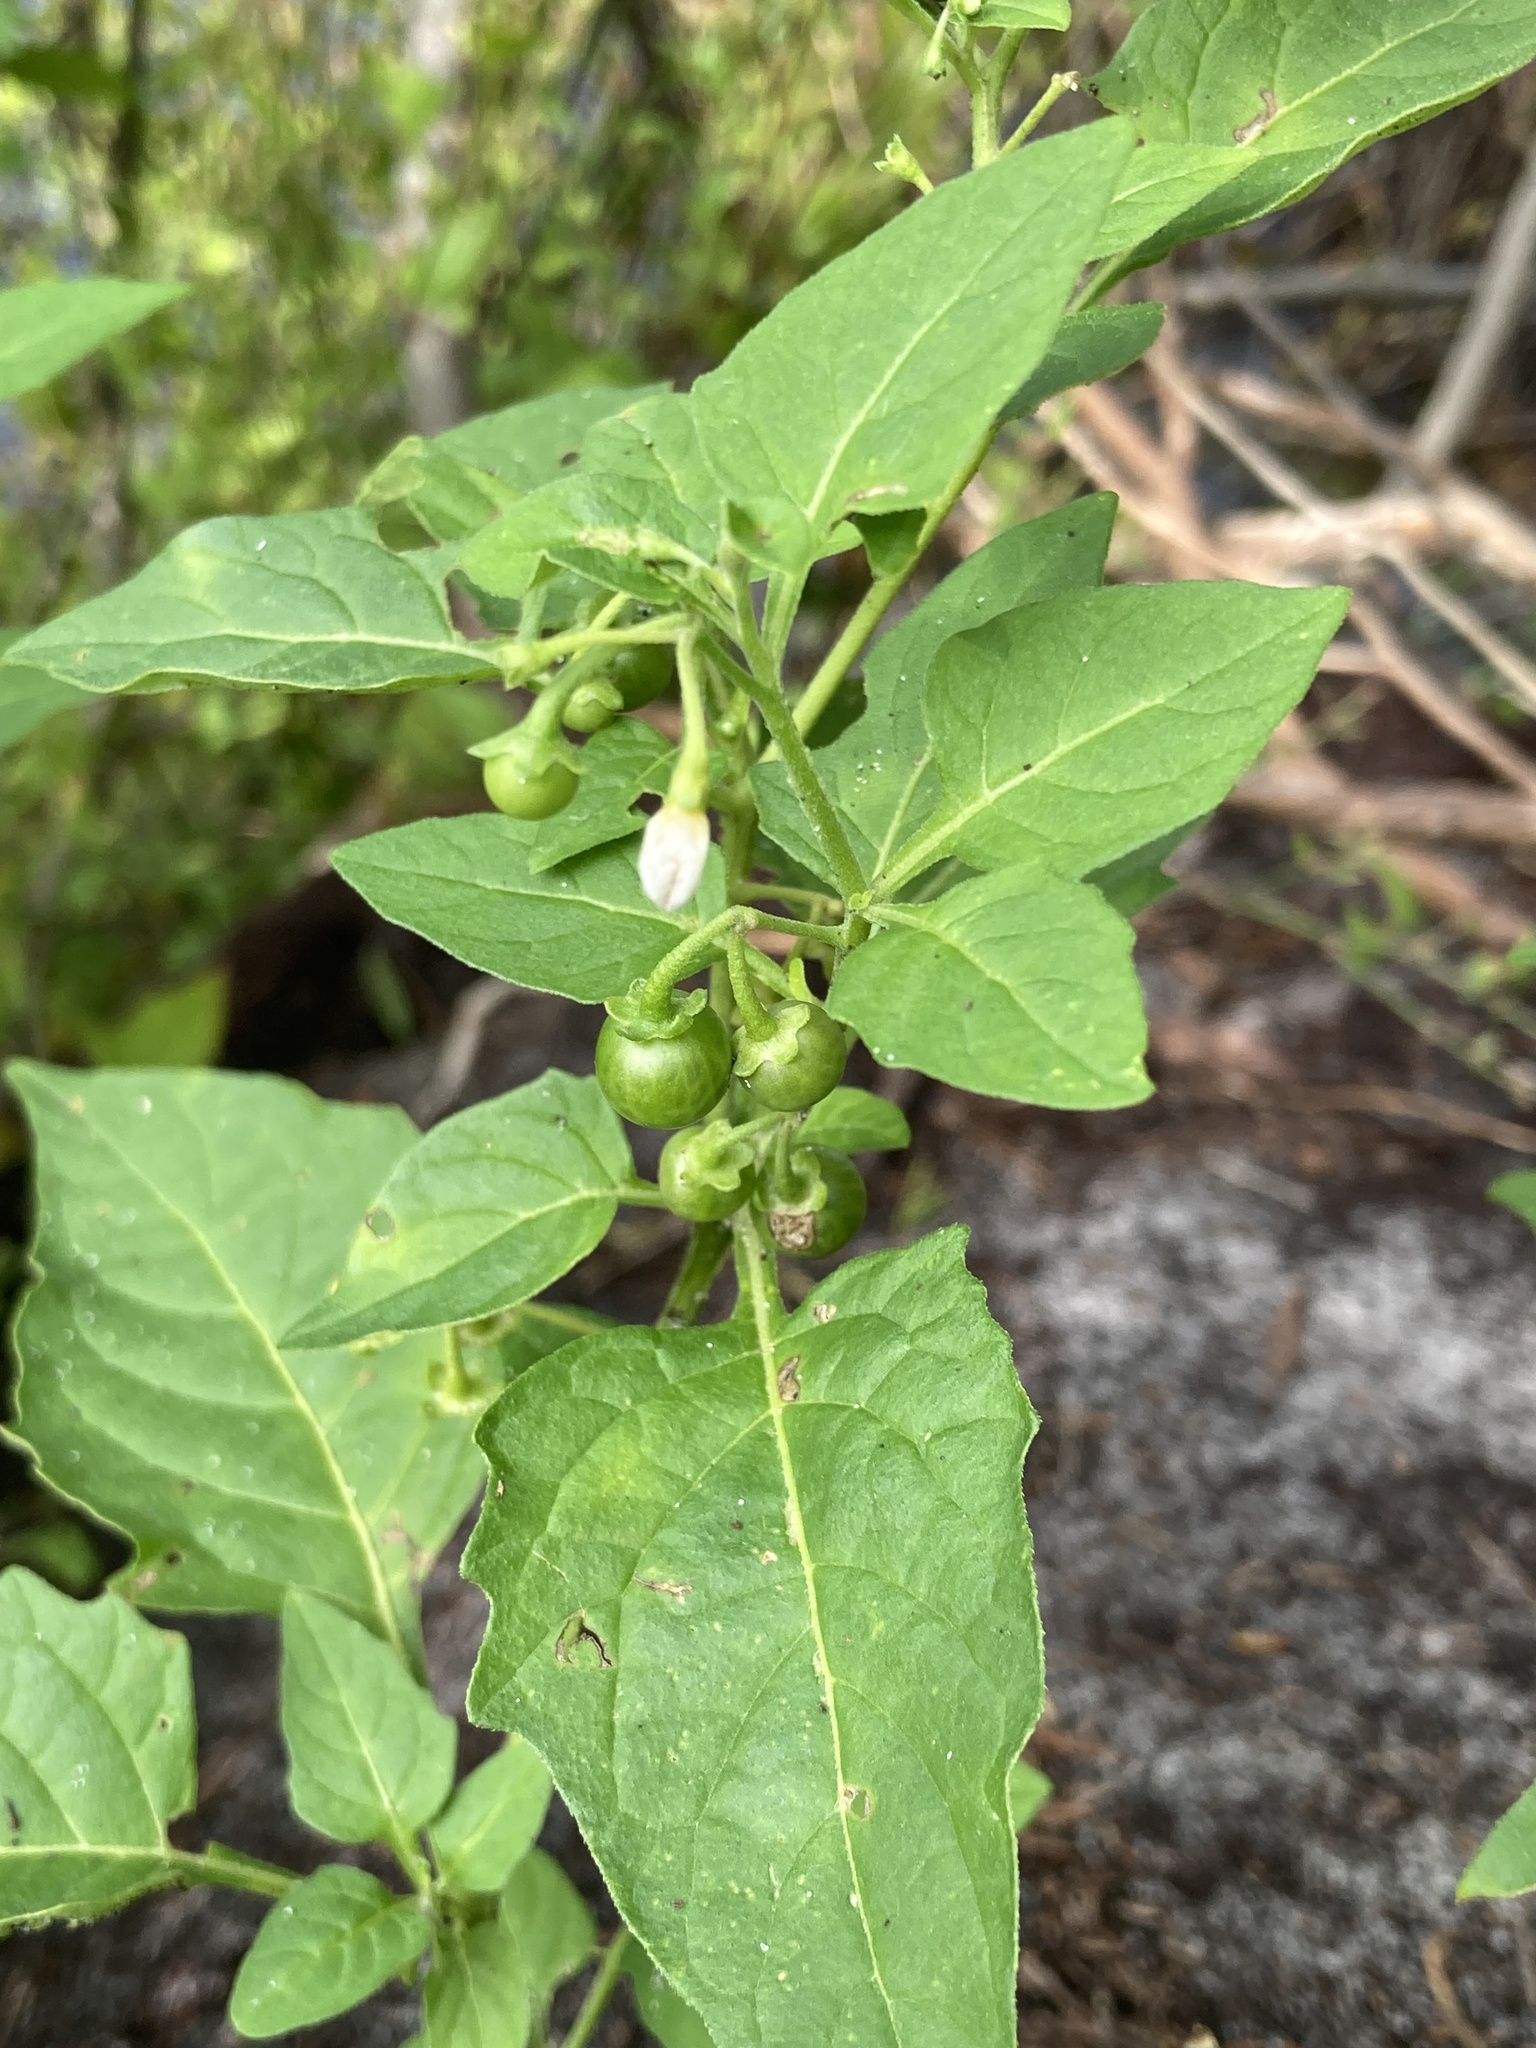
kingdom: Plantae
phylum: Tracheophyta
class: Magnoliopsida
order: Solanales
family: Solanaceae
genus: Solanum
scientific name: Solanum emulans
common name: Eastern black nightshade
